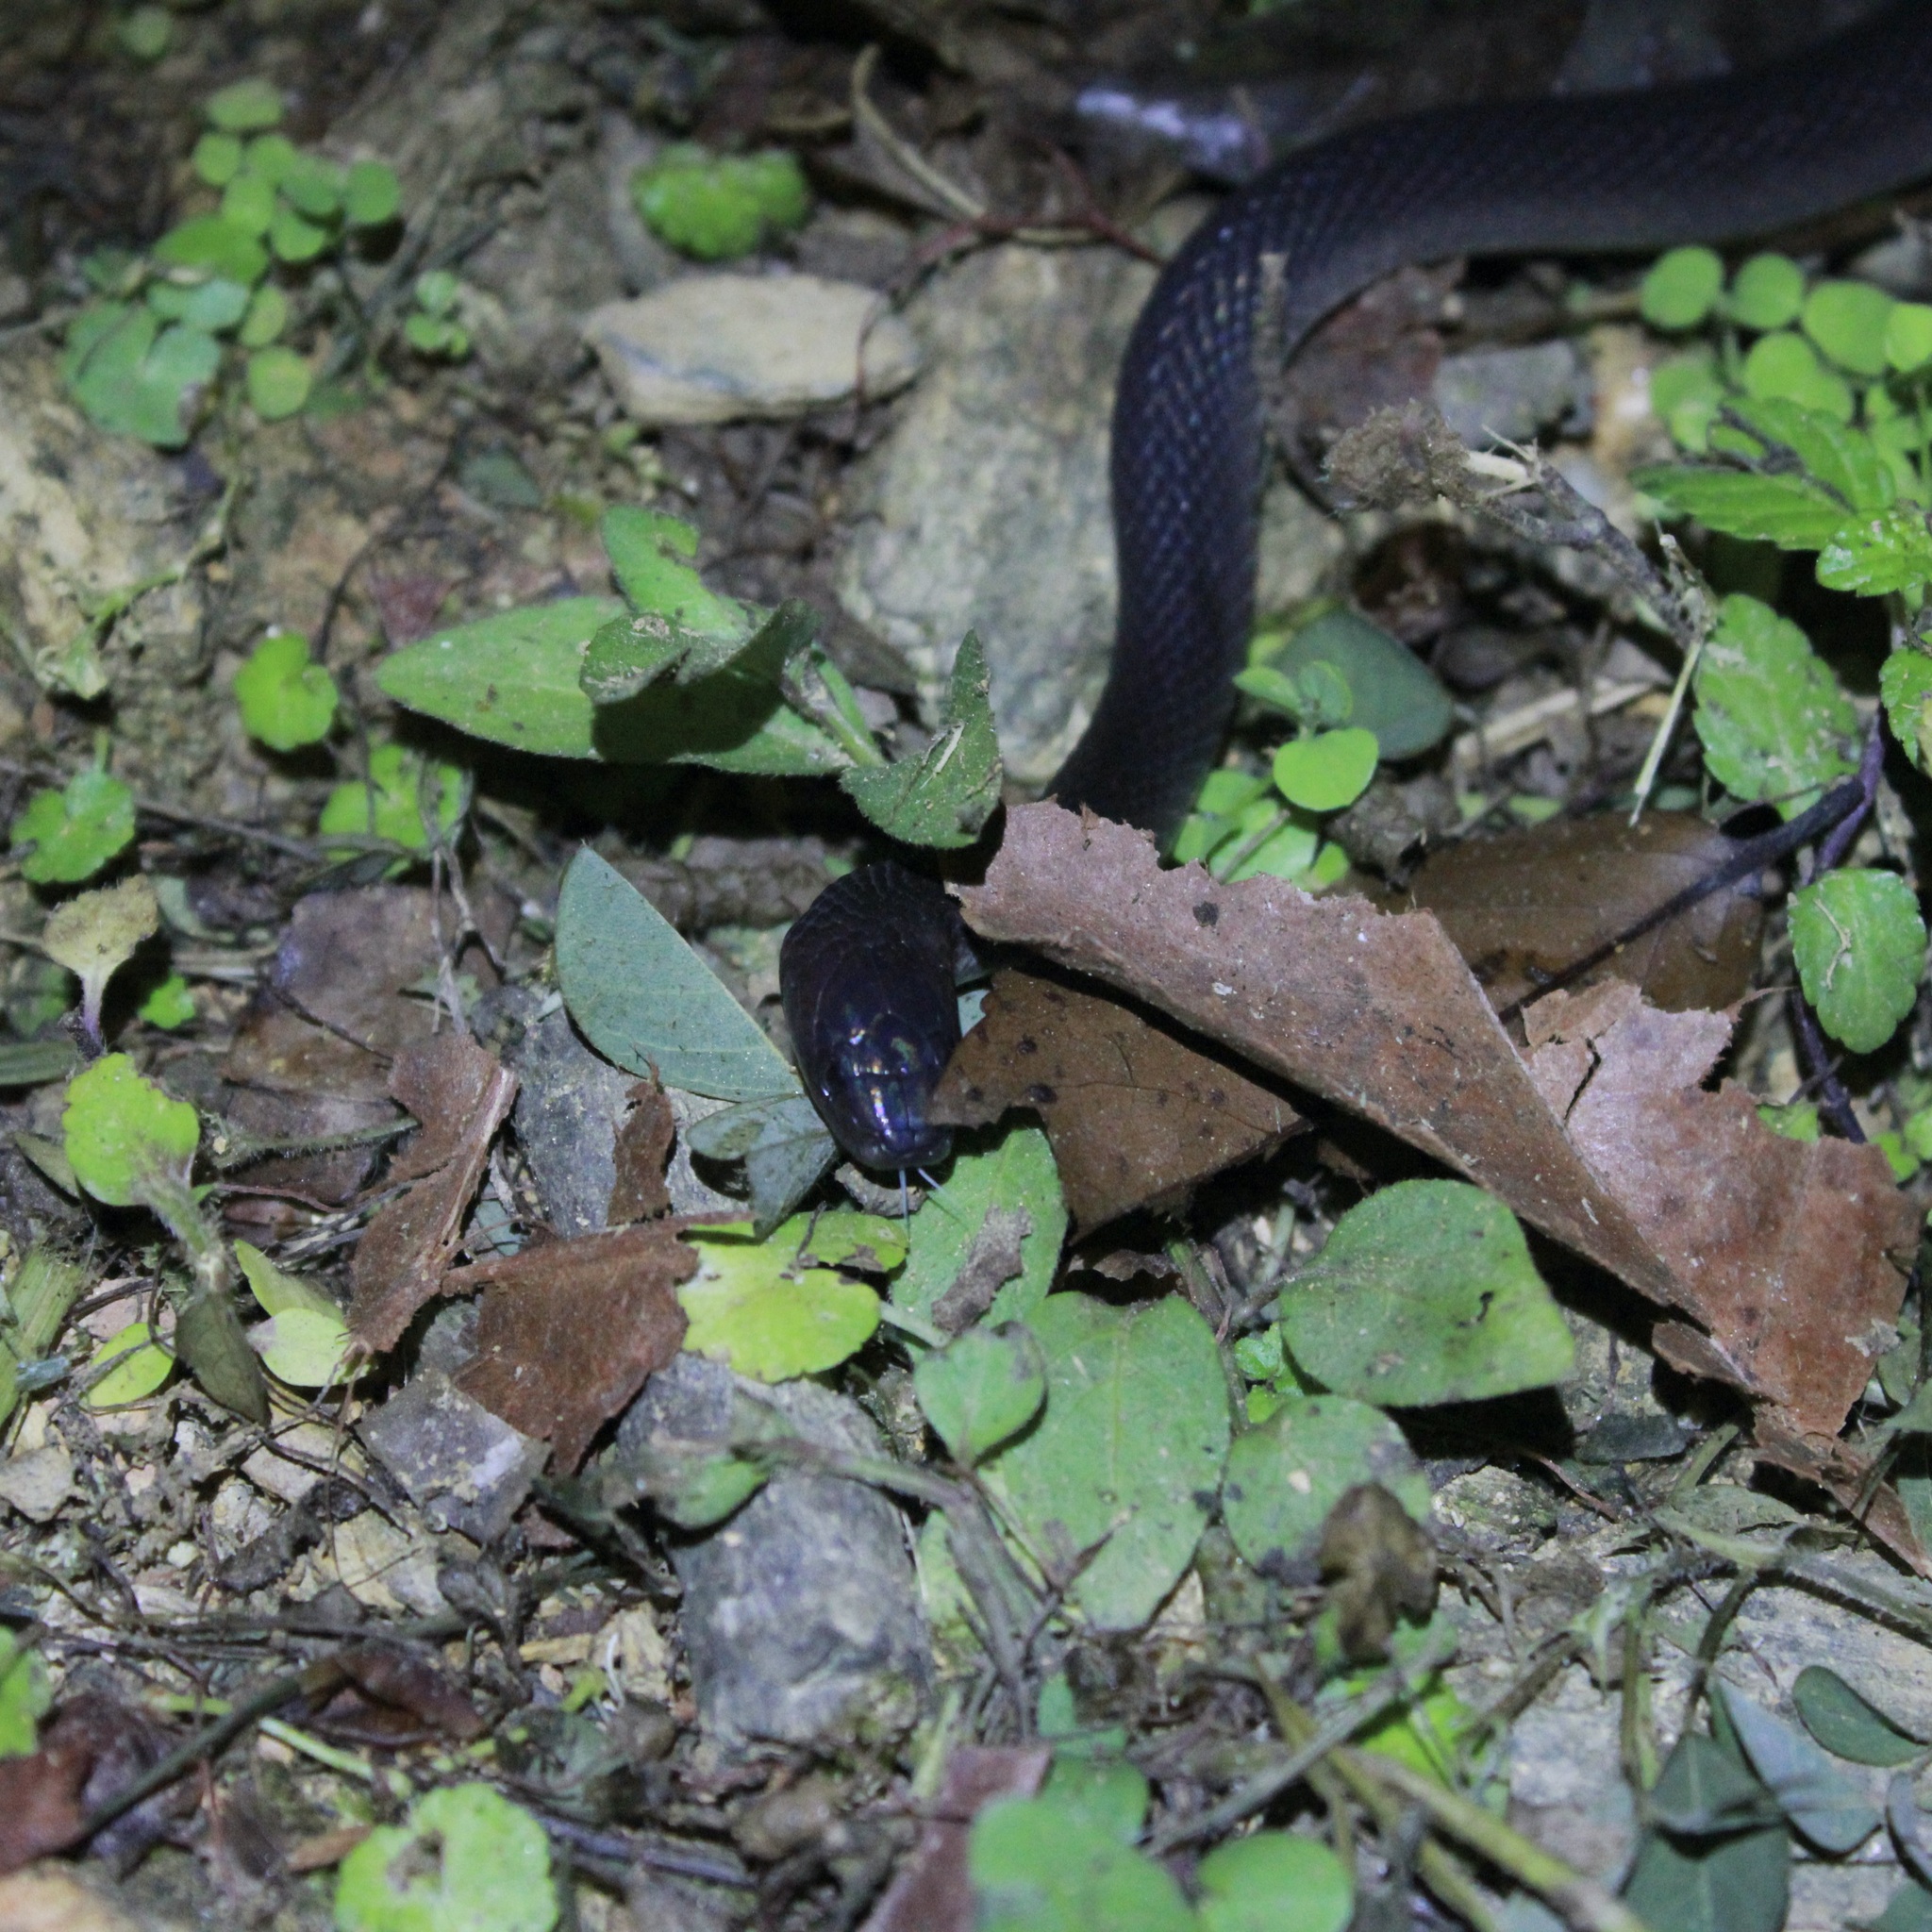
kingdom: Animalia
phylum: Chordata
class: Squamata
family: Colubridae
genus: Ninia
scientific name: Ninia atrata
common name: Hallowell's coffee snake
